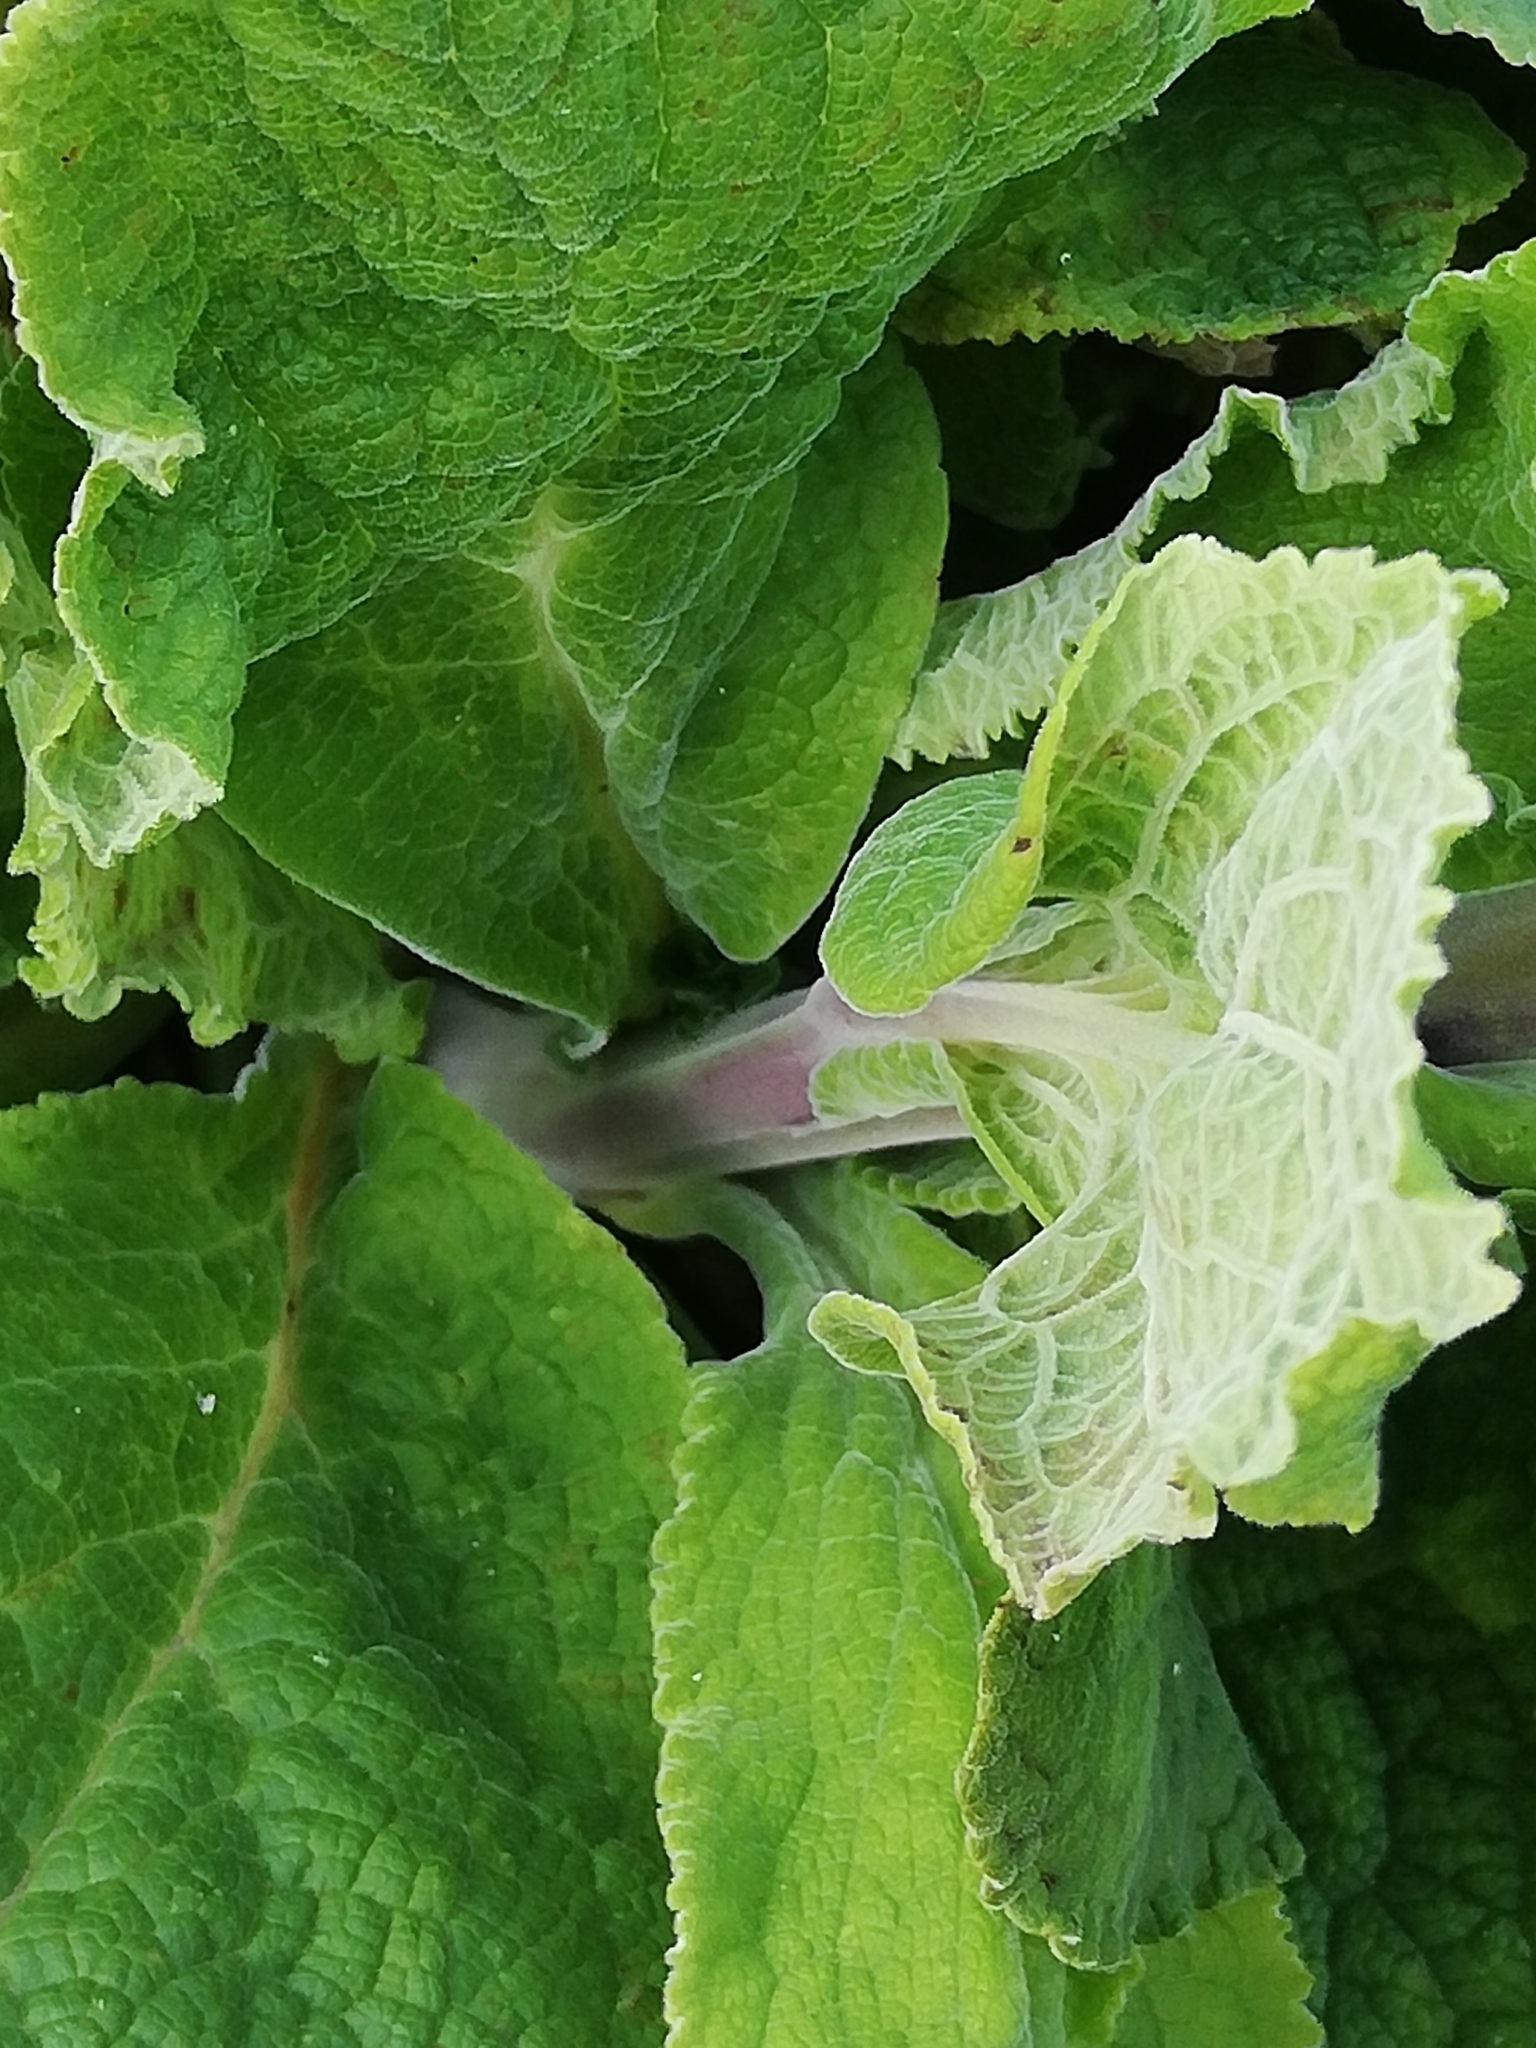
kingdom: Plantae
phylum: Tracheophyta
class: Magnoliopsida
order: Lamiales
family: Plantaginaceae
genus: Digitalis
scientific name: Digitalis purpurea
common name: Foxglove
